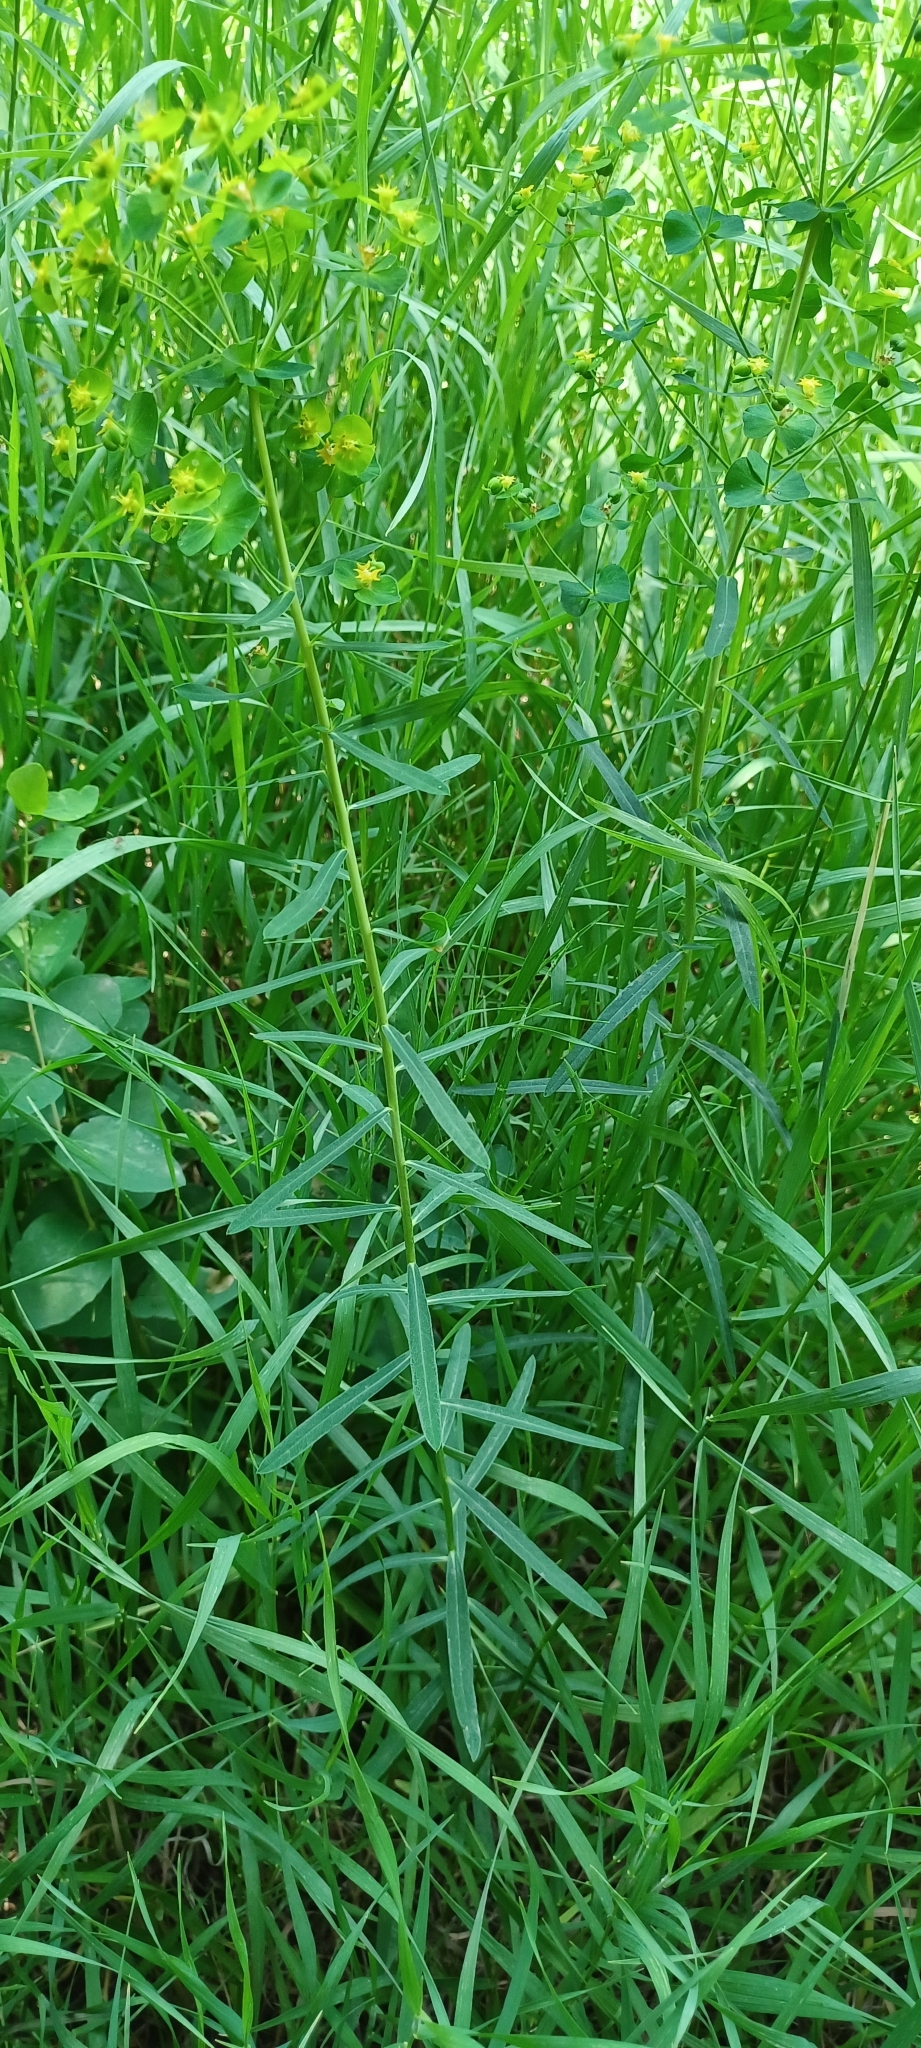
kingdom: Plantae
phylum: Tracheophyta
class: Magnoliopsida
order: Malpighiales
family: Euphorbiaceae
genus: Euphorbia
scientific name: Euphorbia virgata
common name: Leafy spurge
